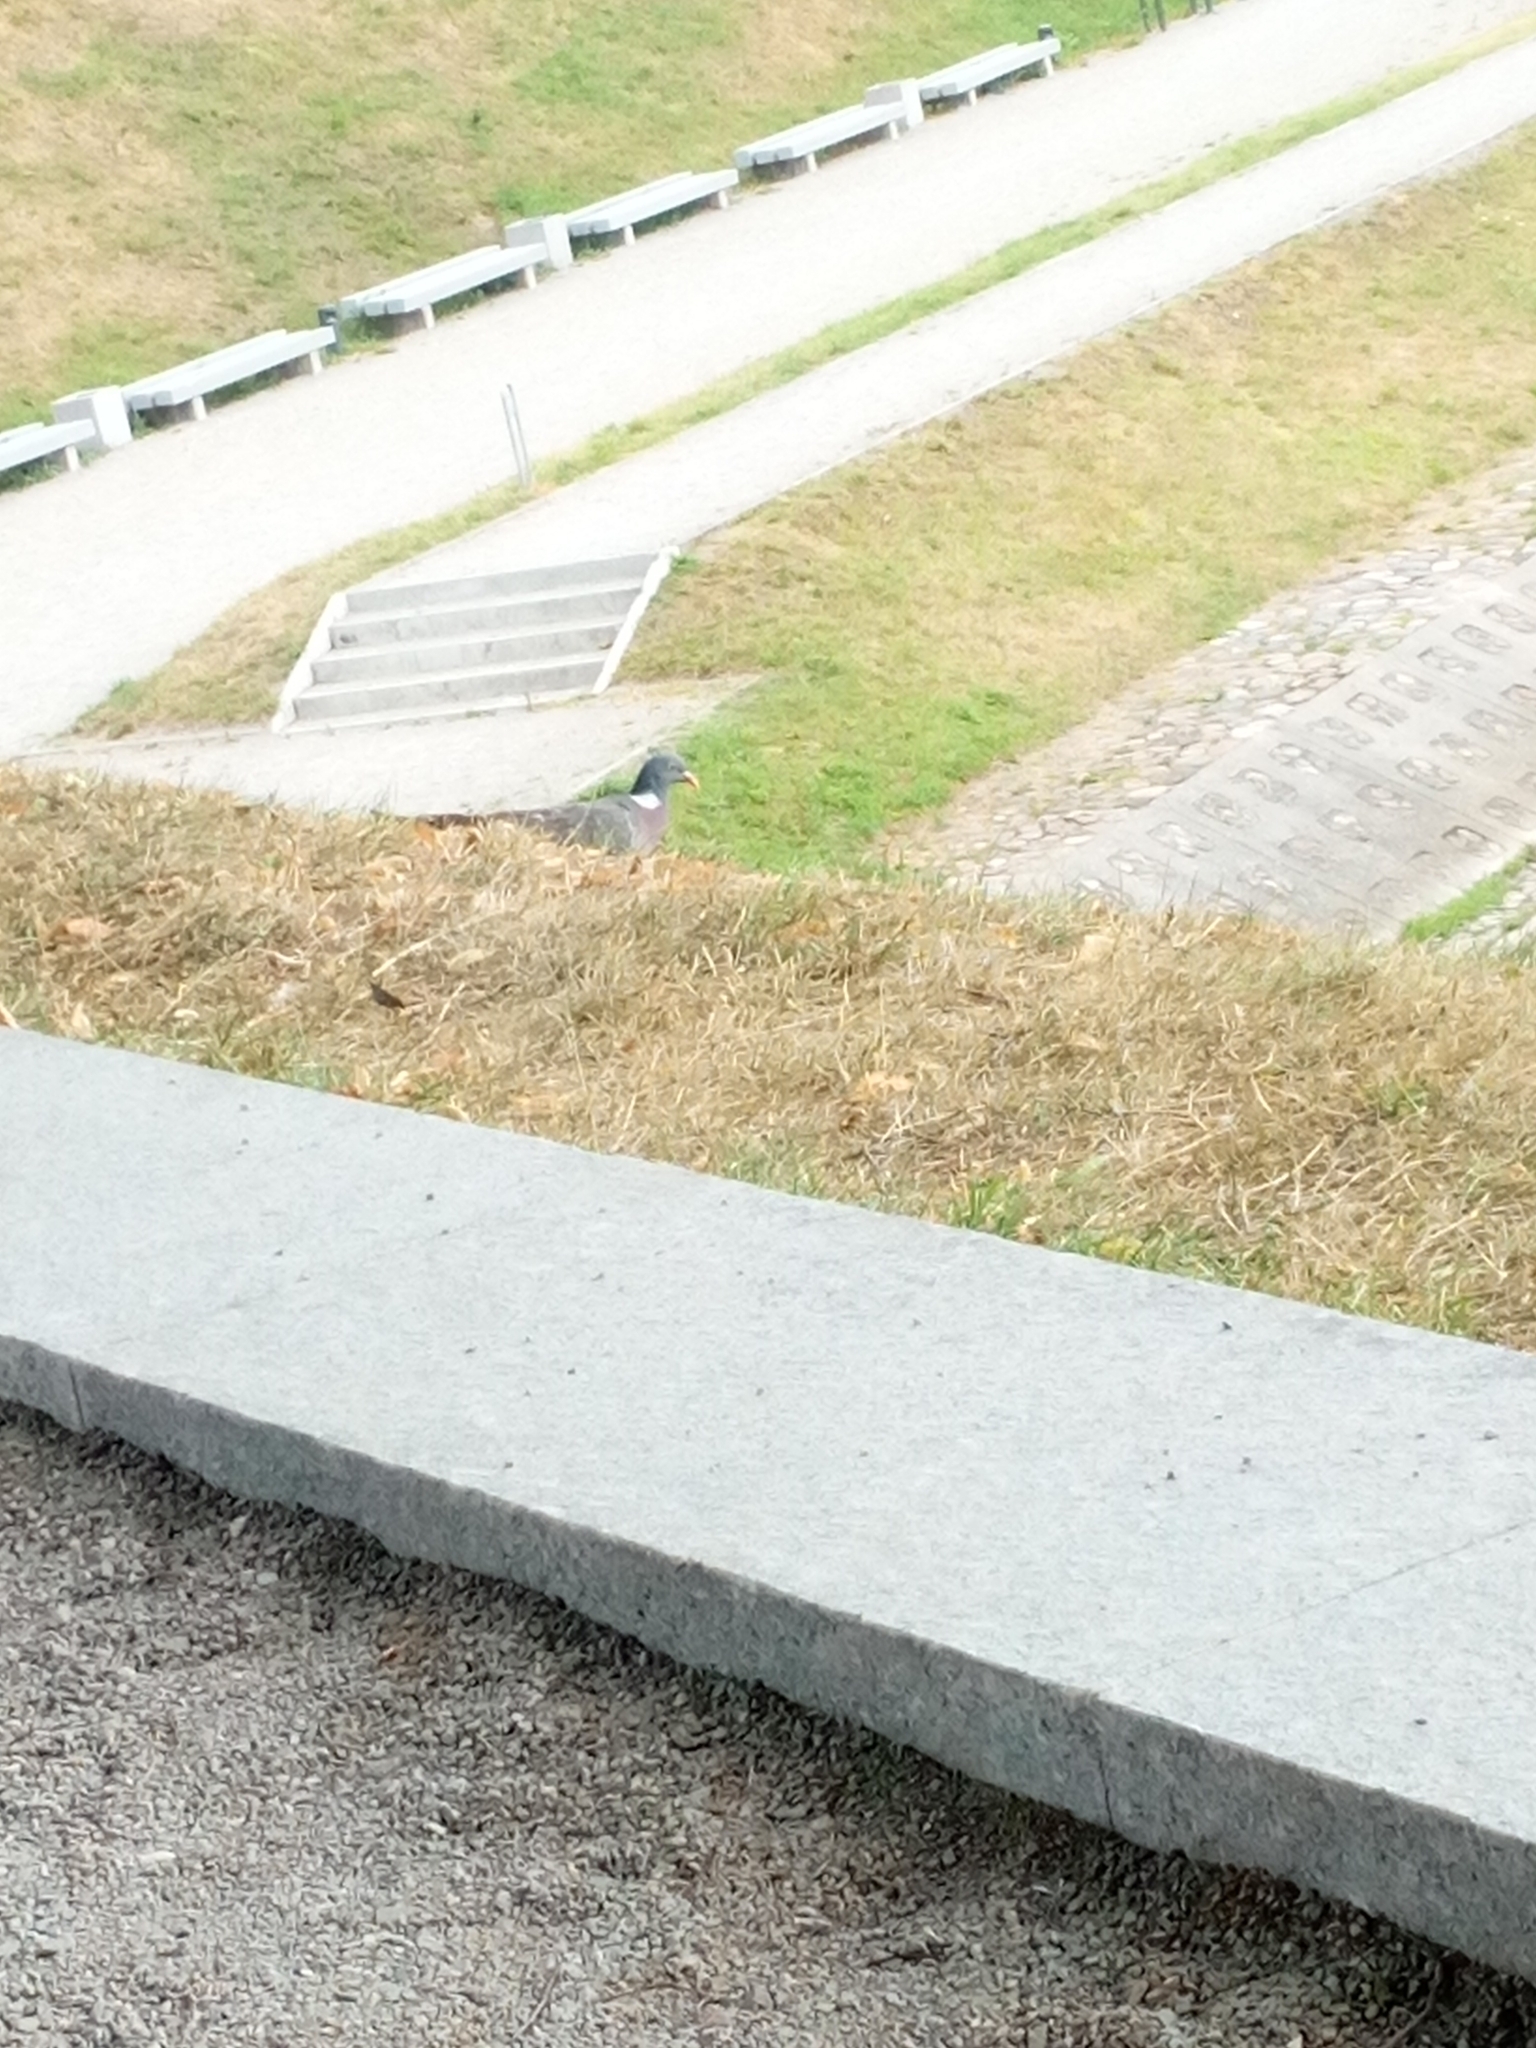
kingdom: Animalia
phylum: Chordata
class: Aves
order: Columbiformes
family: Columbidae
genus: Columba
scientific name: Columba palumbus
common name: Common wood pigeon
